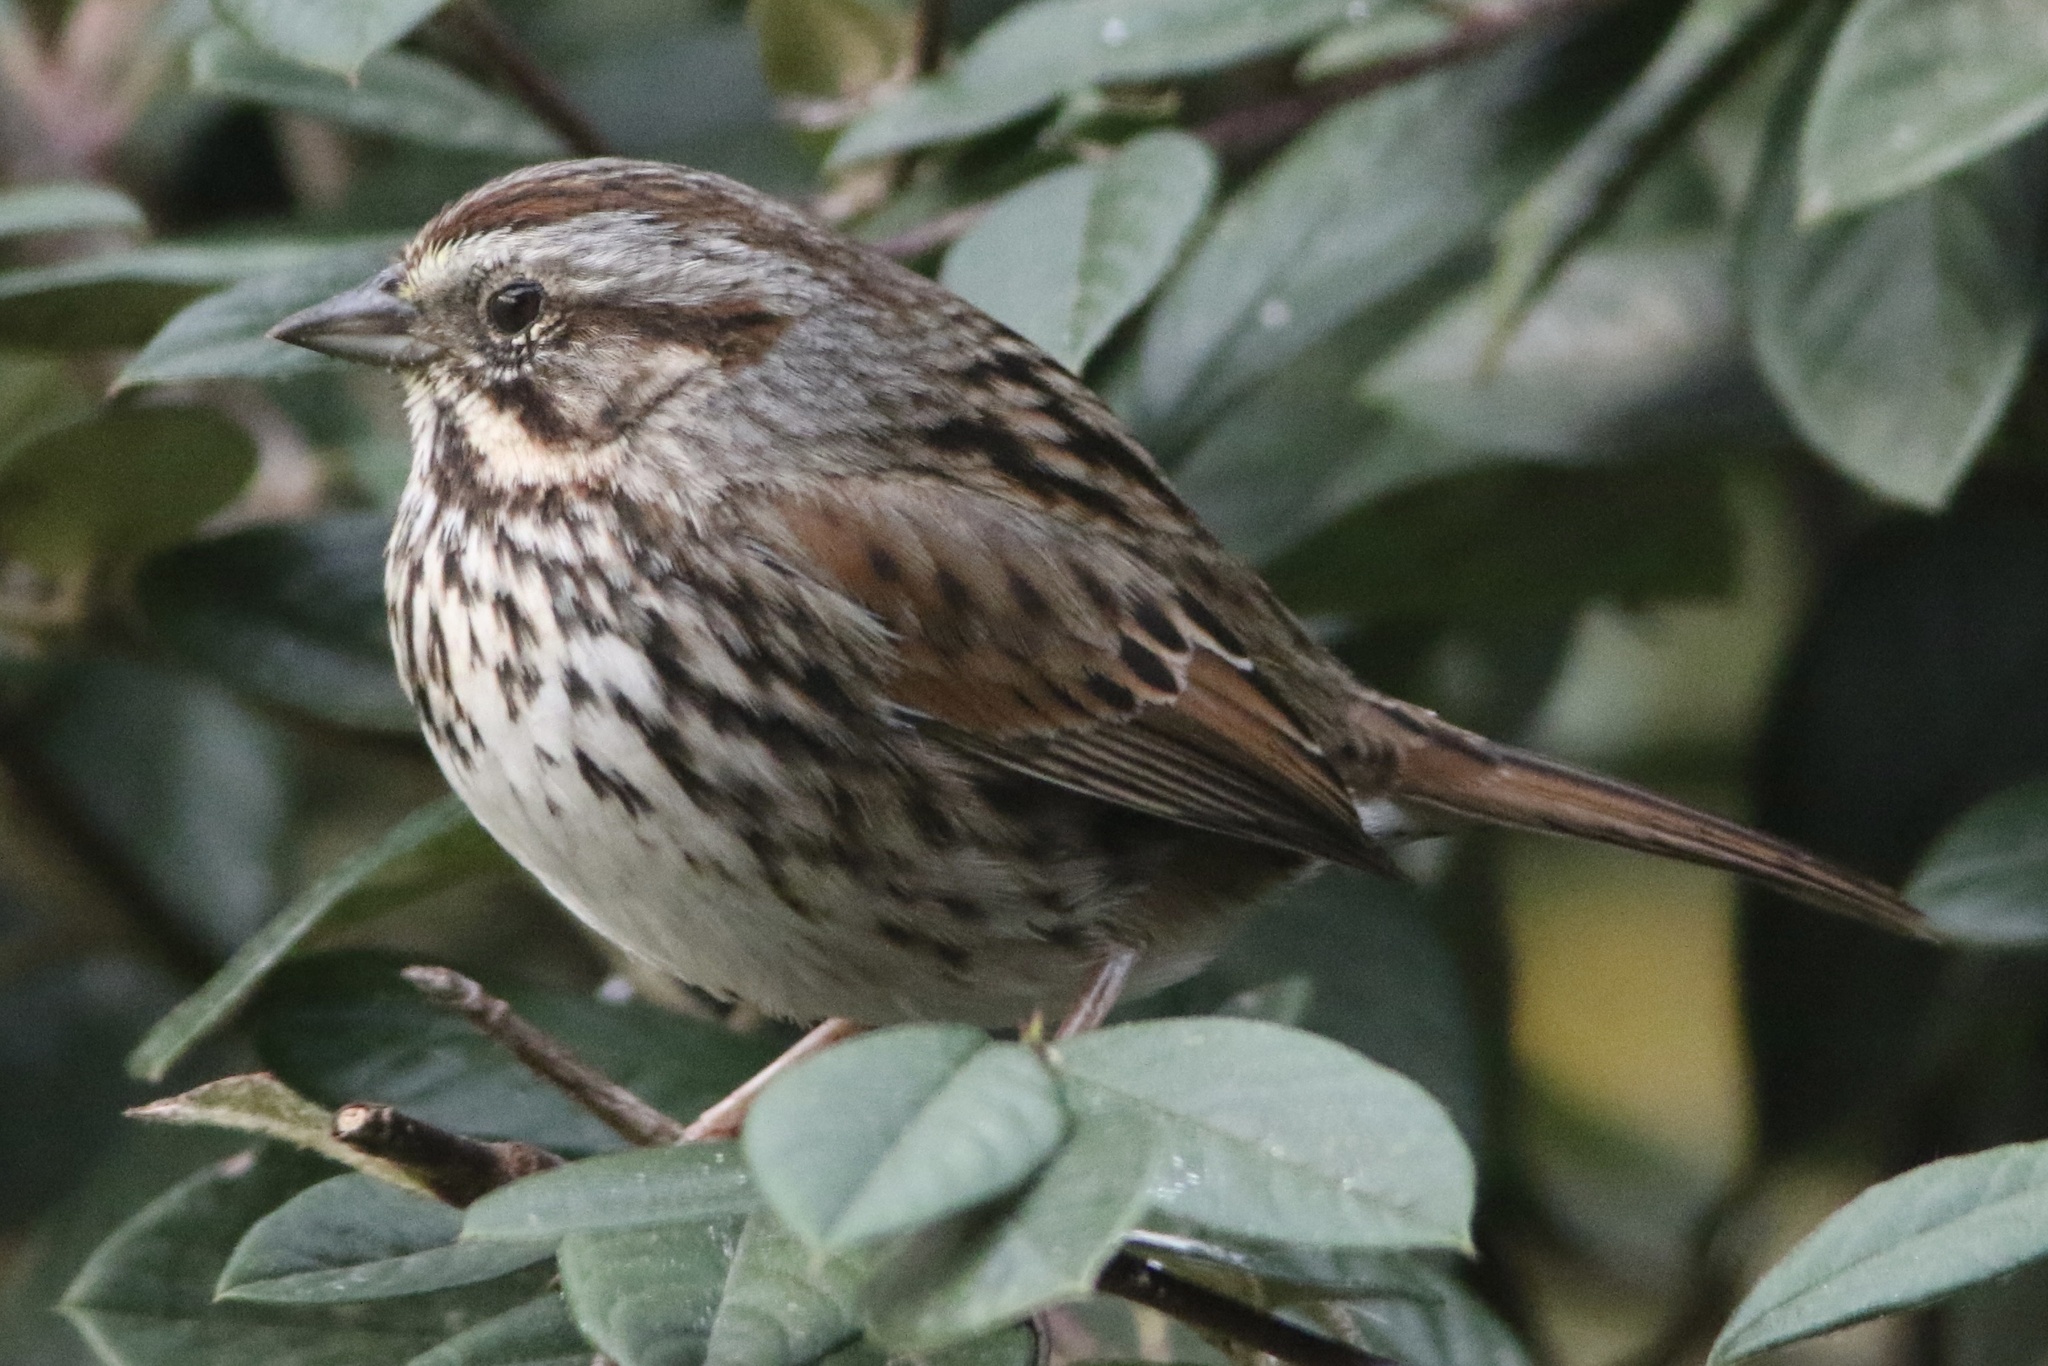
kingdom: Animalia
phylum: Chordata
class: Aves
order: Passeriformes
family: Passerellidae
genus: Melospiza
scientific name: Melospiza melodia
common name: Song sparrow
